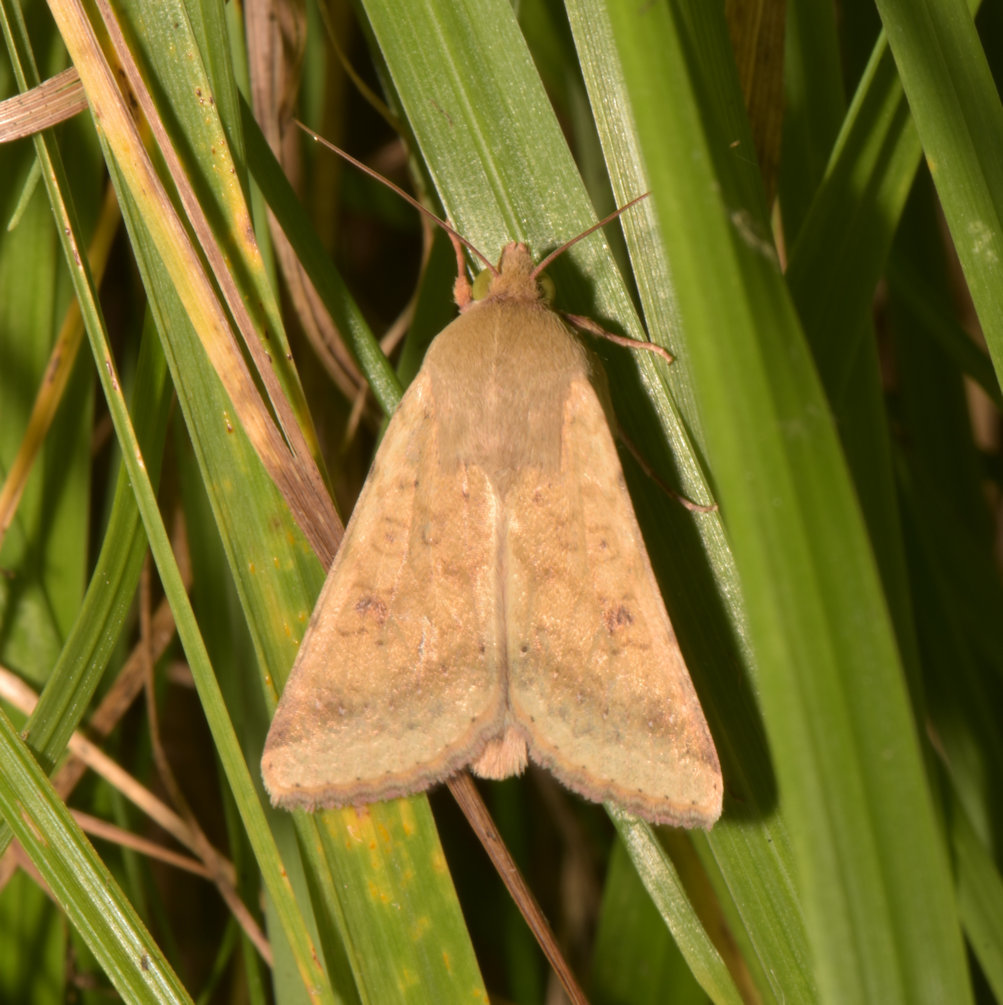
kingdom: Animalia
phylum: Arthropoda
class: Insecta
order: Lepidoptera
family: Noctuidae
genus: Helicoverpa
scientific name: Helicoverpa zea
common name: Bollworm
